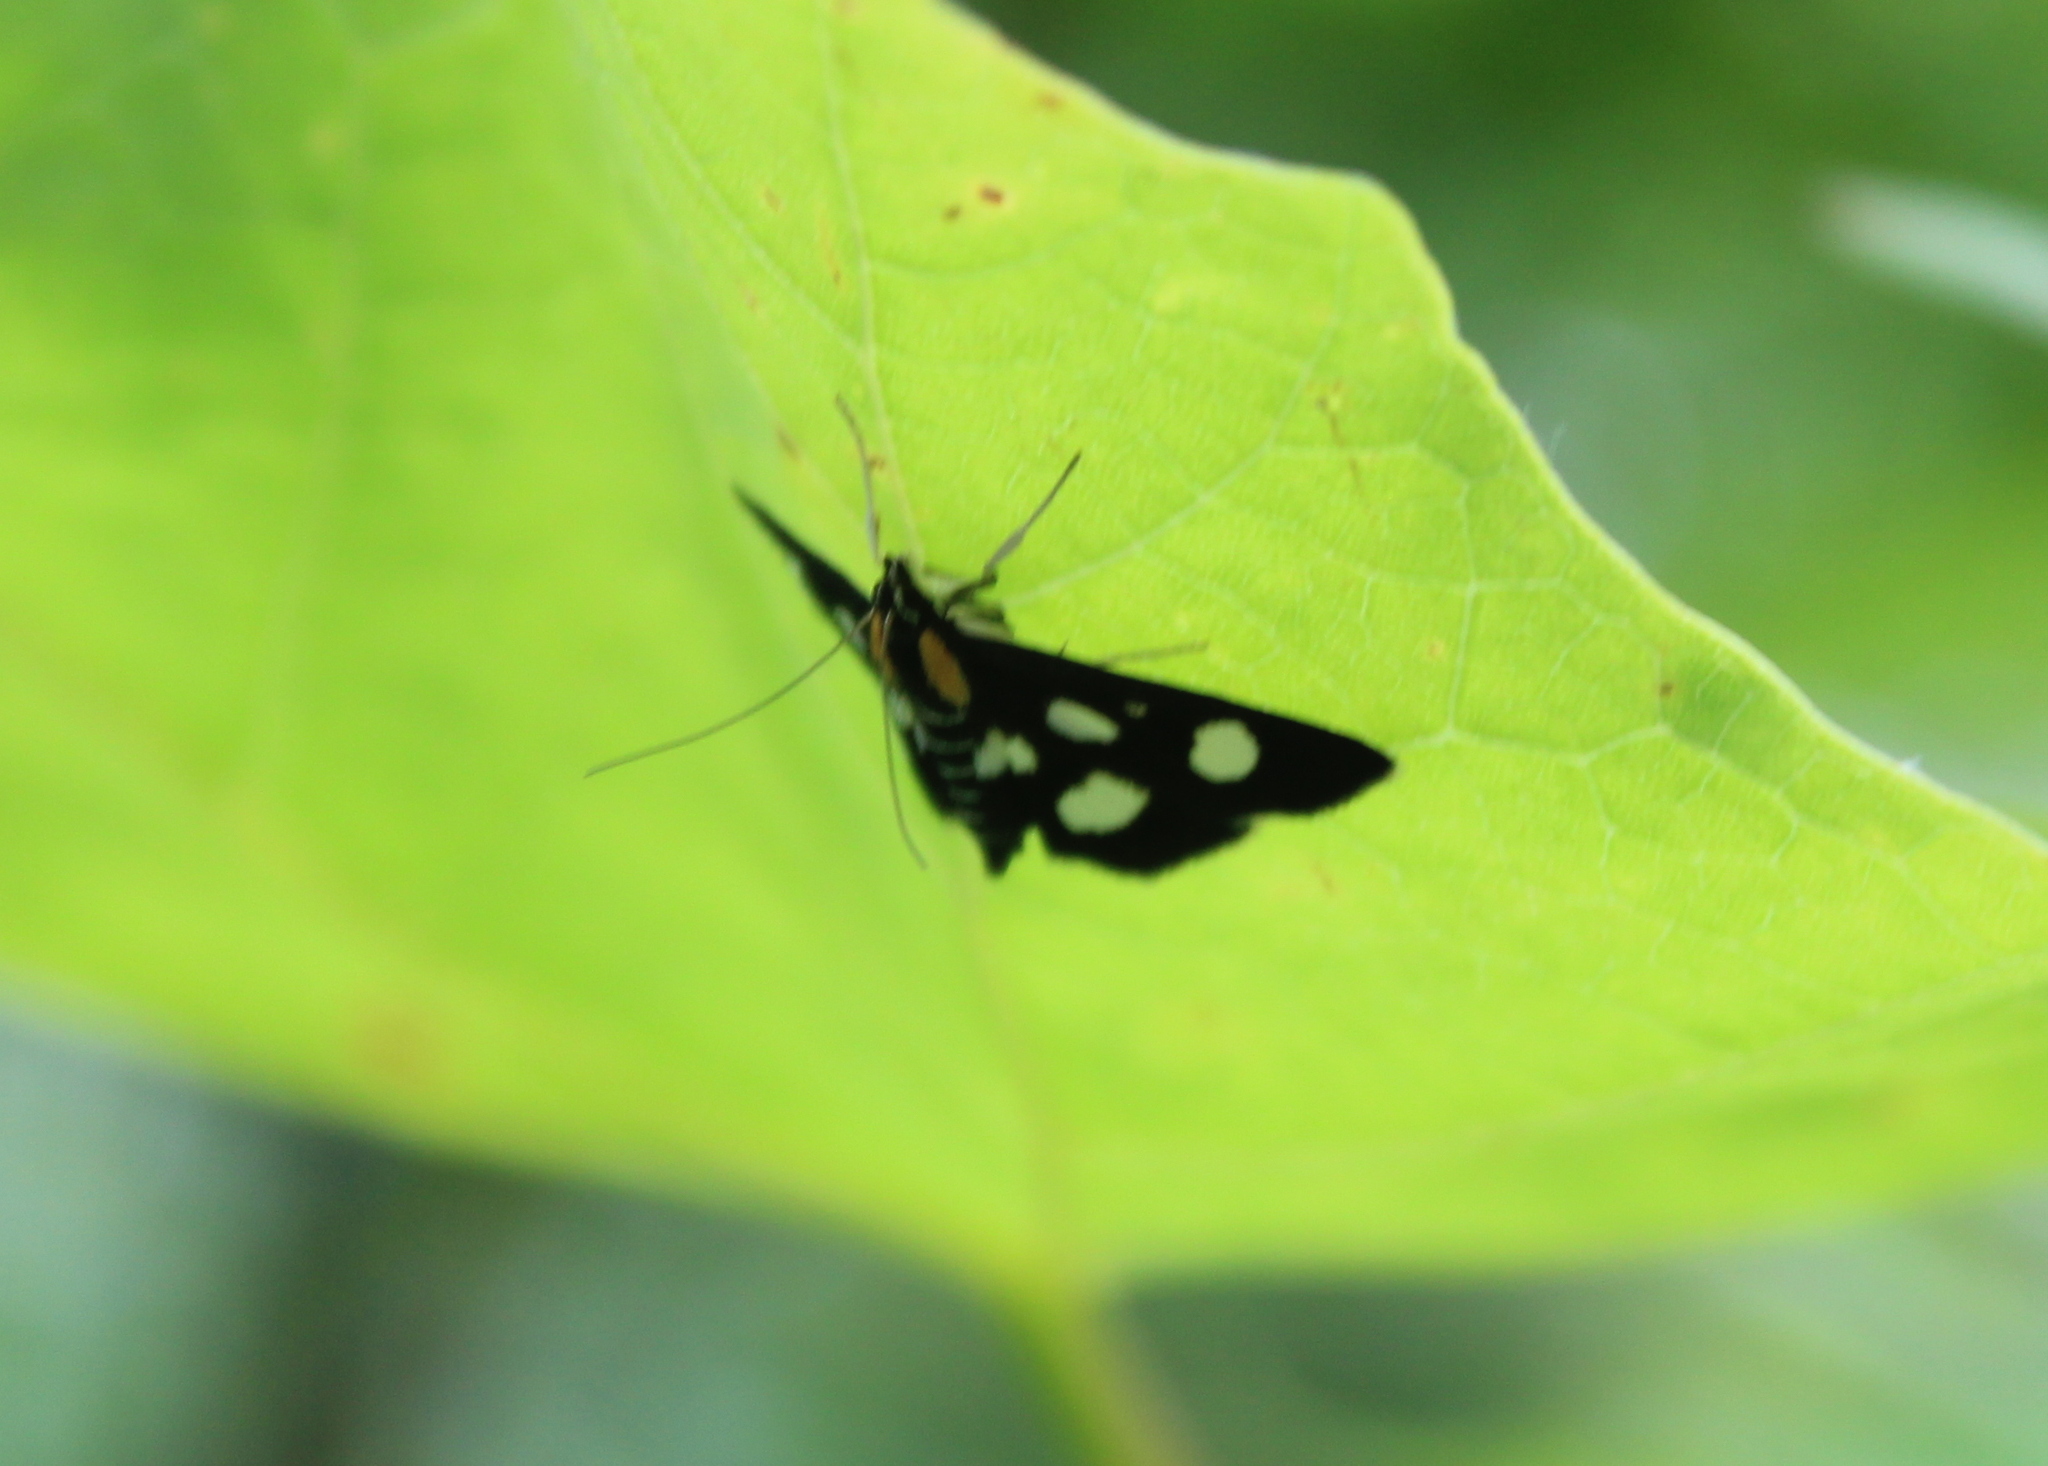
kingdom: Animalia
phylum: Arthropoda
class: Insecta
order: Lepidoptera
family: Crambidae
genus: Anania
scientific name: Anania funebris
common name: White-spotted sable moth
